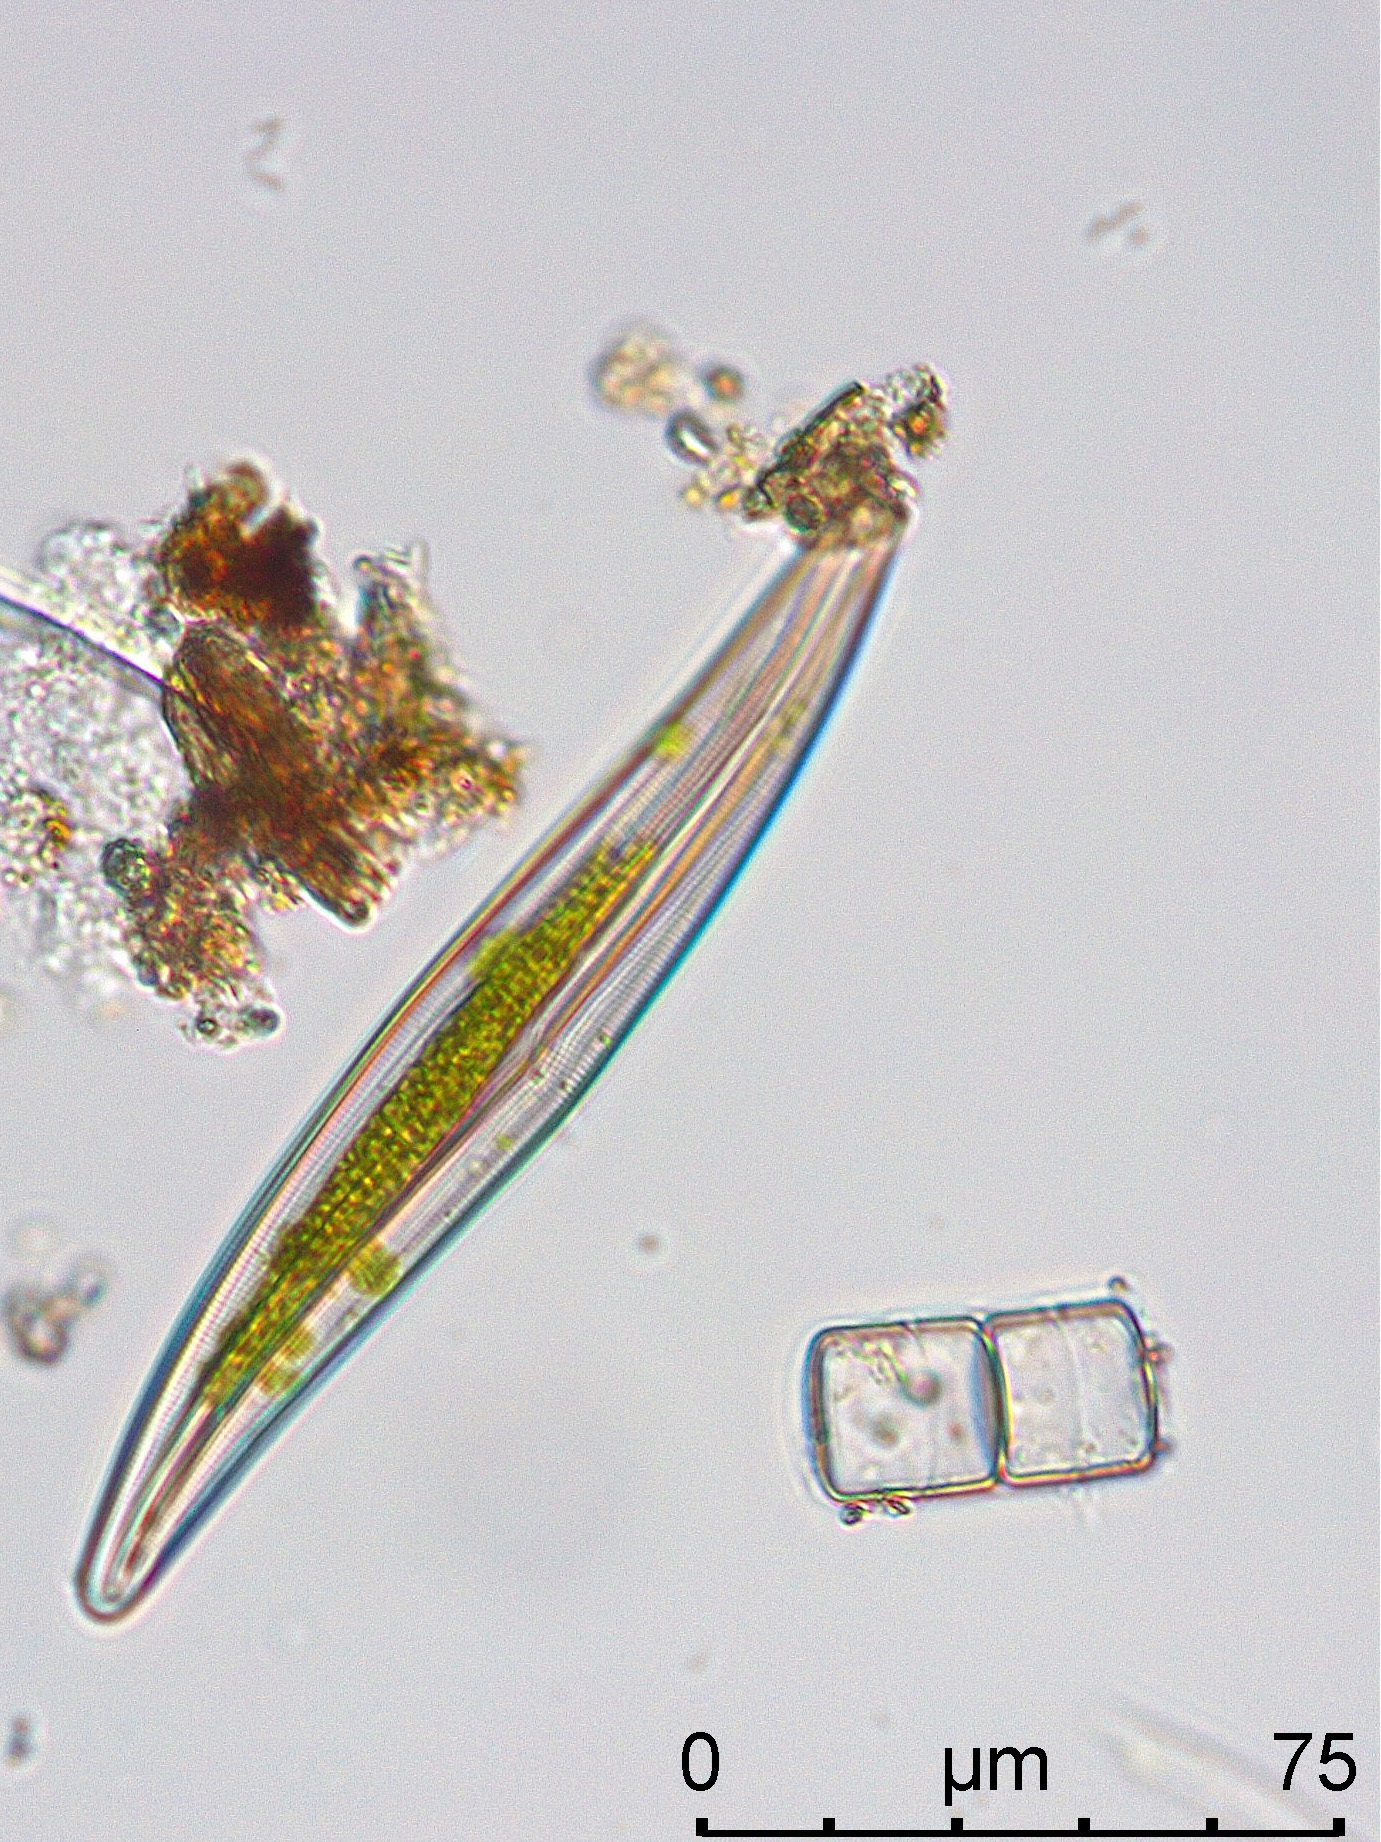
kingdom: Chromista
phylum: Ochrophyta
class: Bacillariophyceae
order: Naviculales
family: Pleurosigmataceae
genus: Gyrosigma
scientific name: Gyrosigma acuminatum
